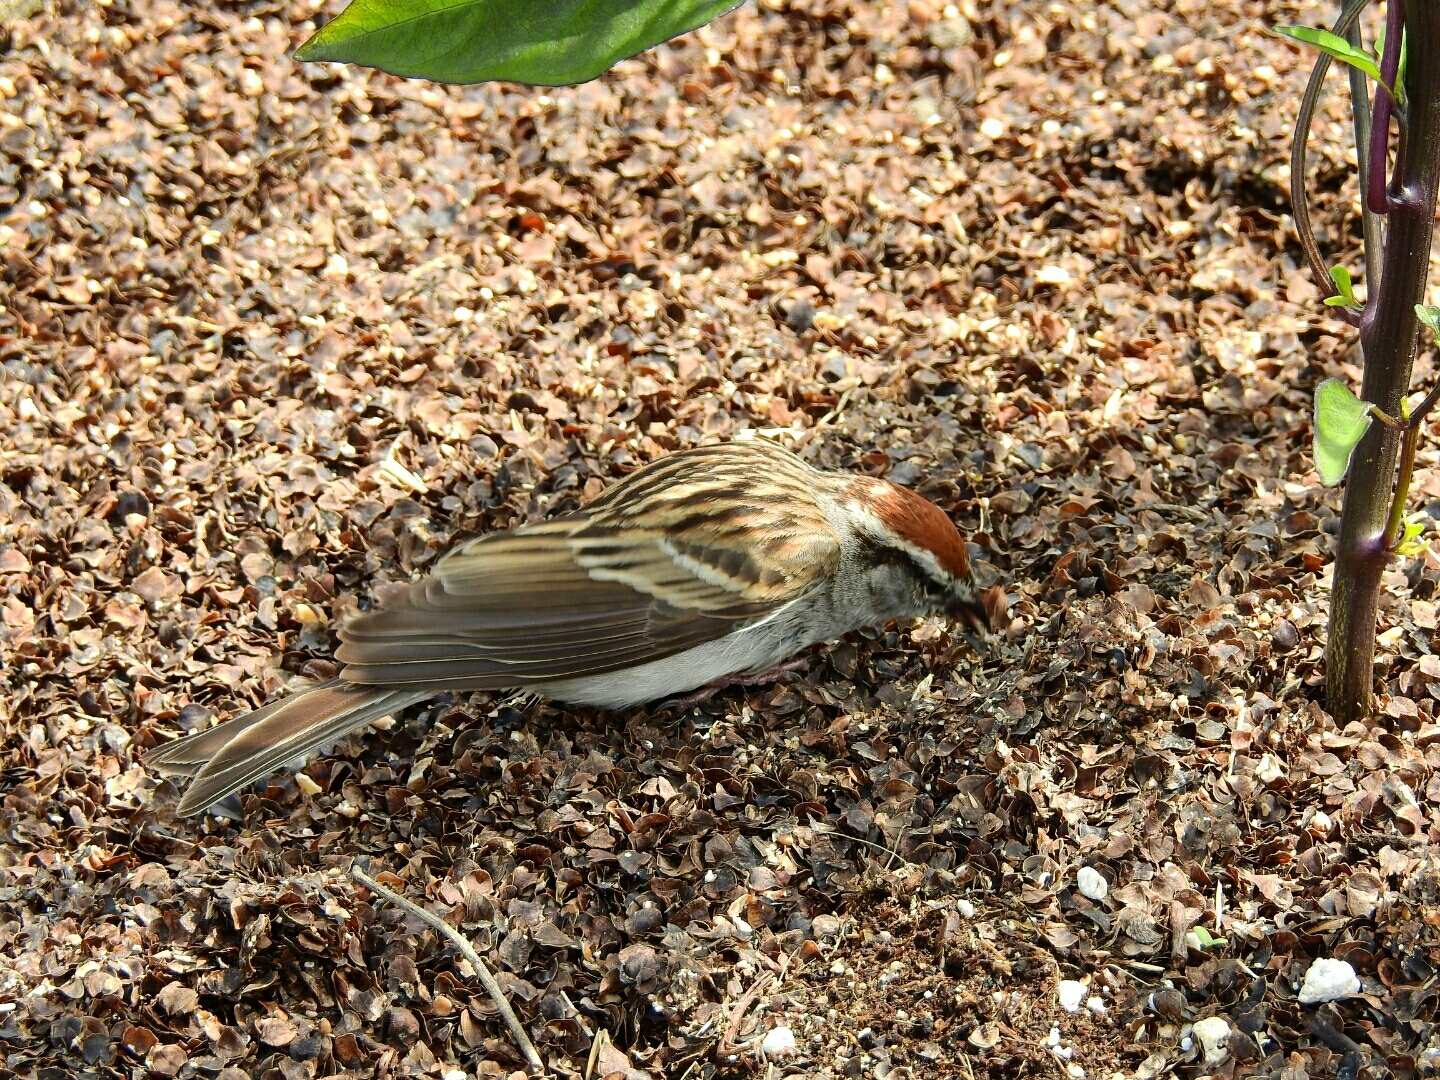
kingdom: Animalia
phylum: Chordata
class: Aves
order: Passeriformes
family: Passerellidae
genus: Spizella
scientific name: Spizella passerina
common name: Chipping sparrow
